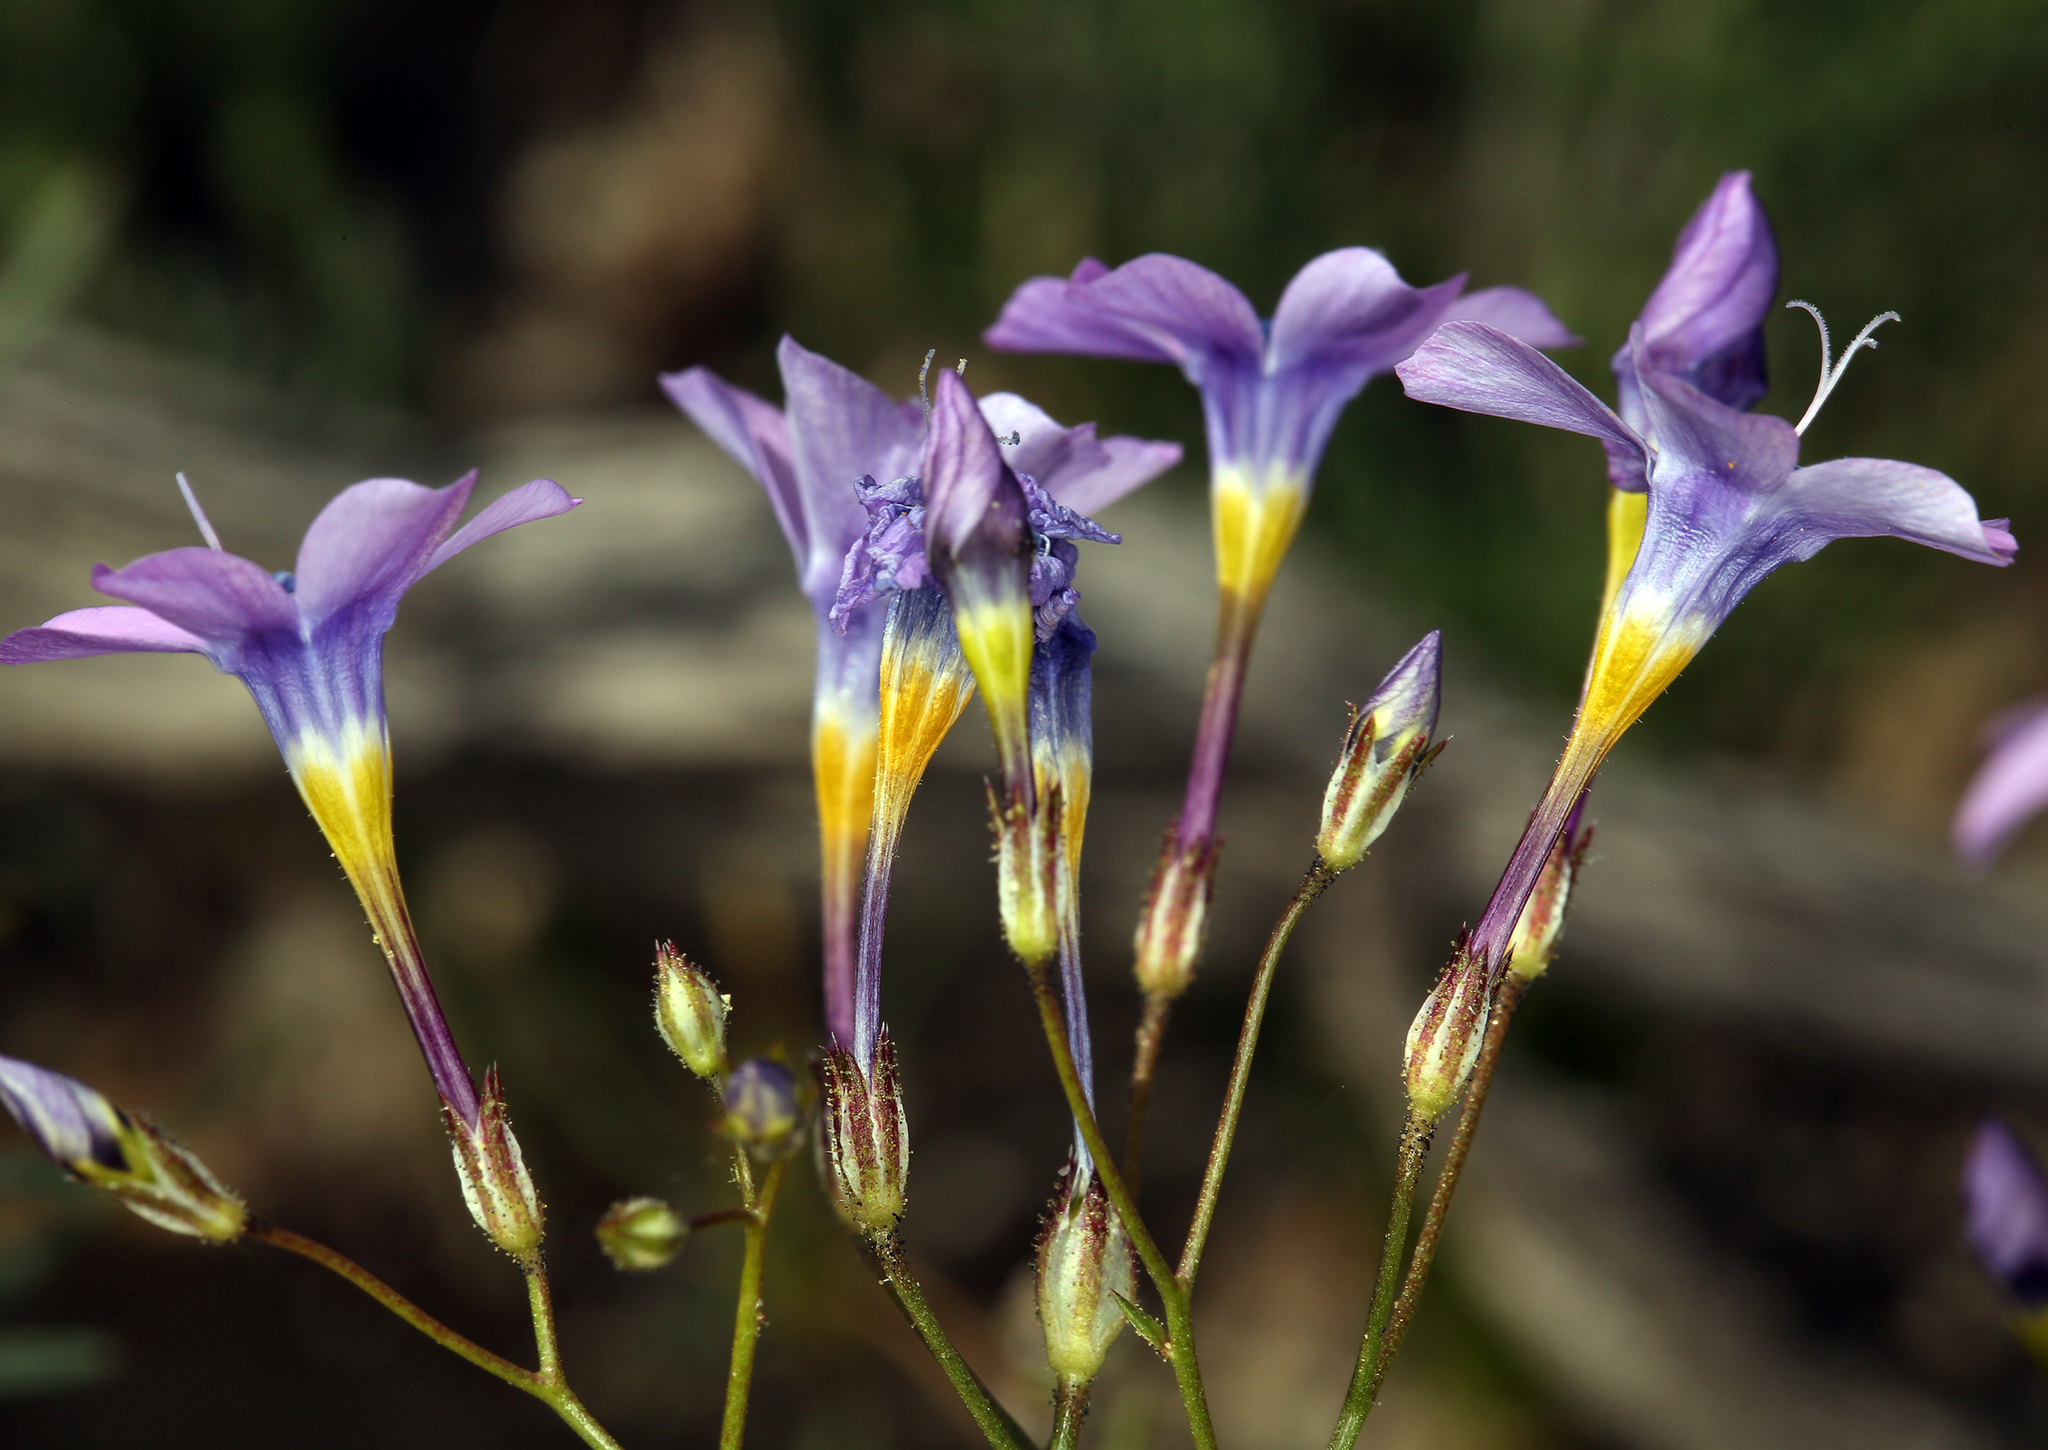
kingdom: Plantae
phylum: Tracheophyta
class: Magnoliopsida
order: Ericales
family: Polemoniaceae
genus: Gilia
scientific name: Gilia cana
